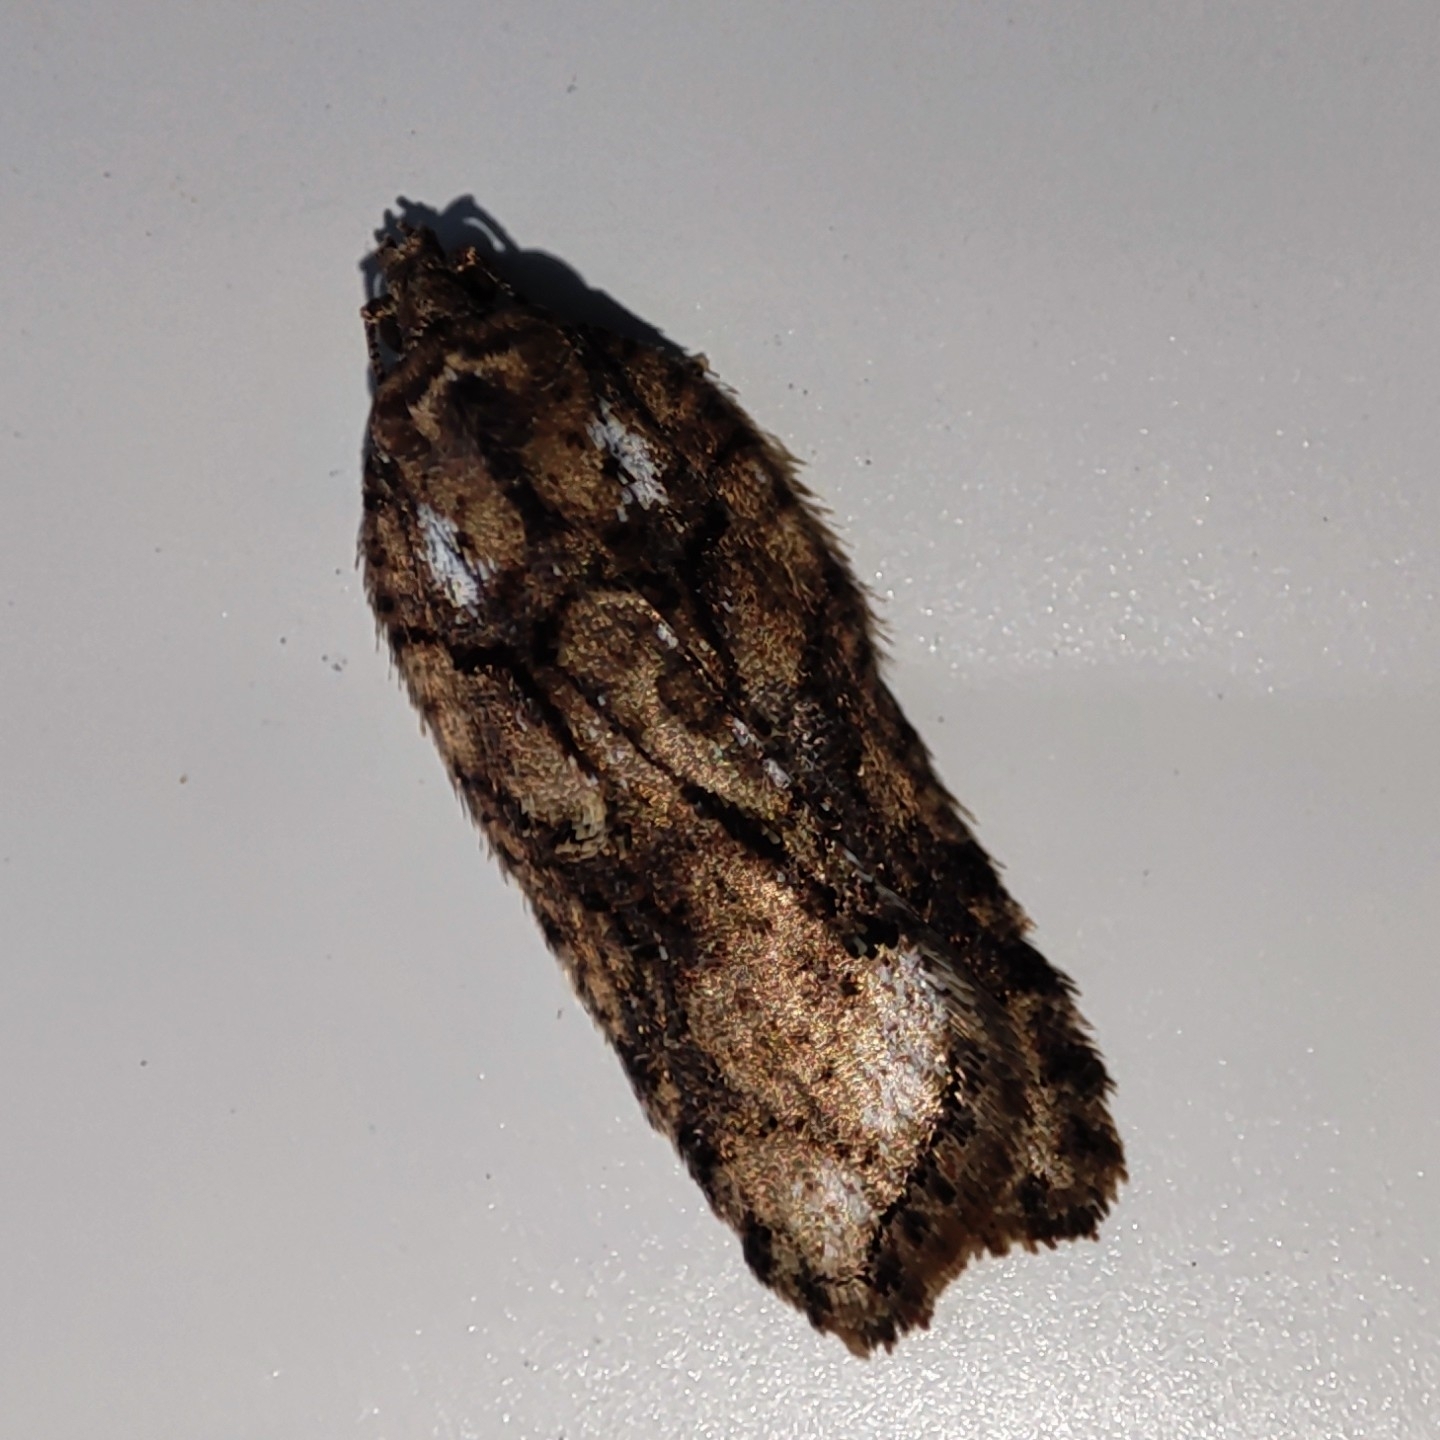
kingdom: Animalia
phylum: Arthropoda
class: Insecta
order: Lepidoptera
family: Tortricidae
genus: Acleris
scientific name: Acleris abietana
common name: Perth button
